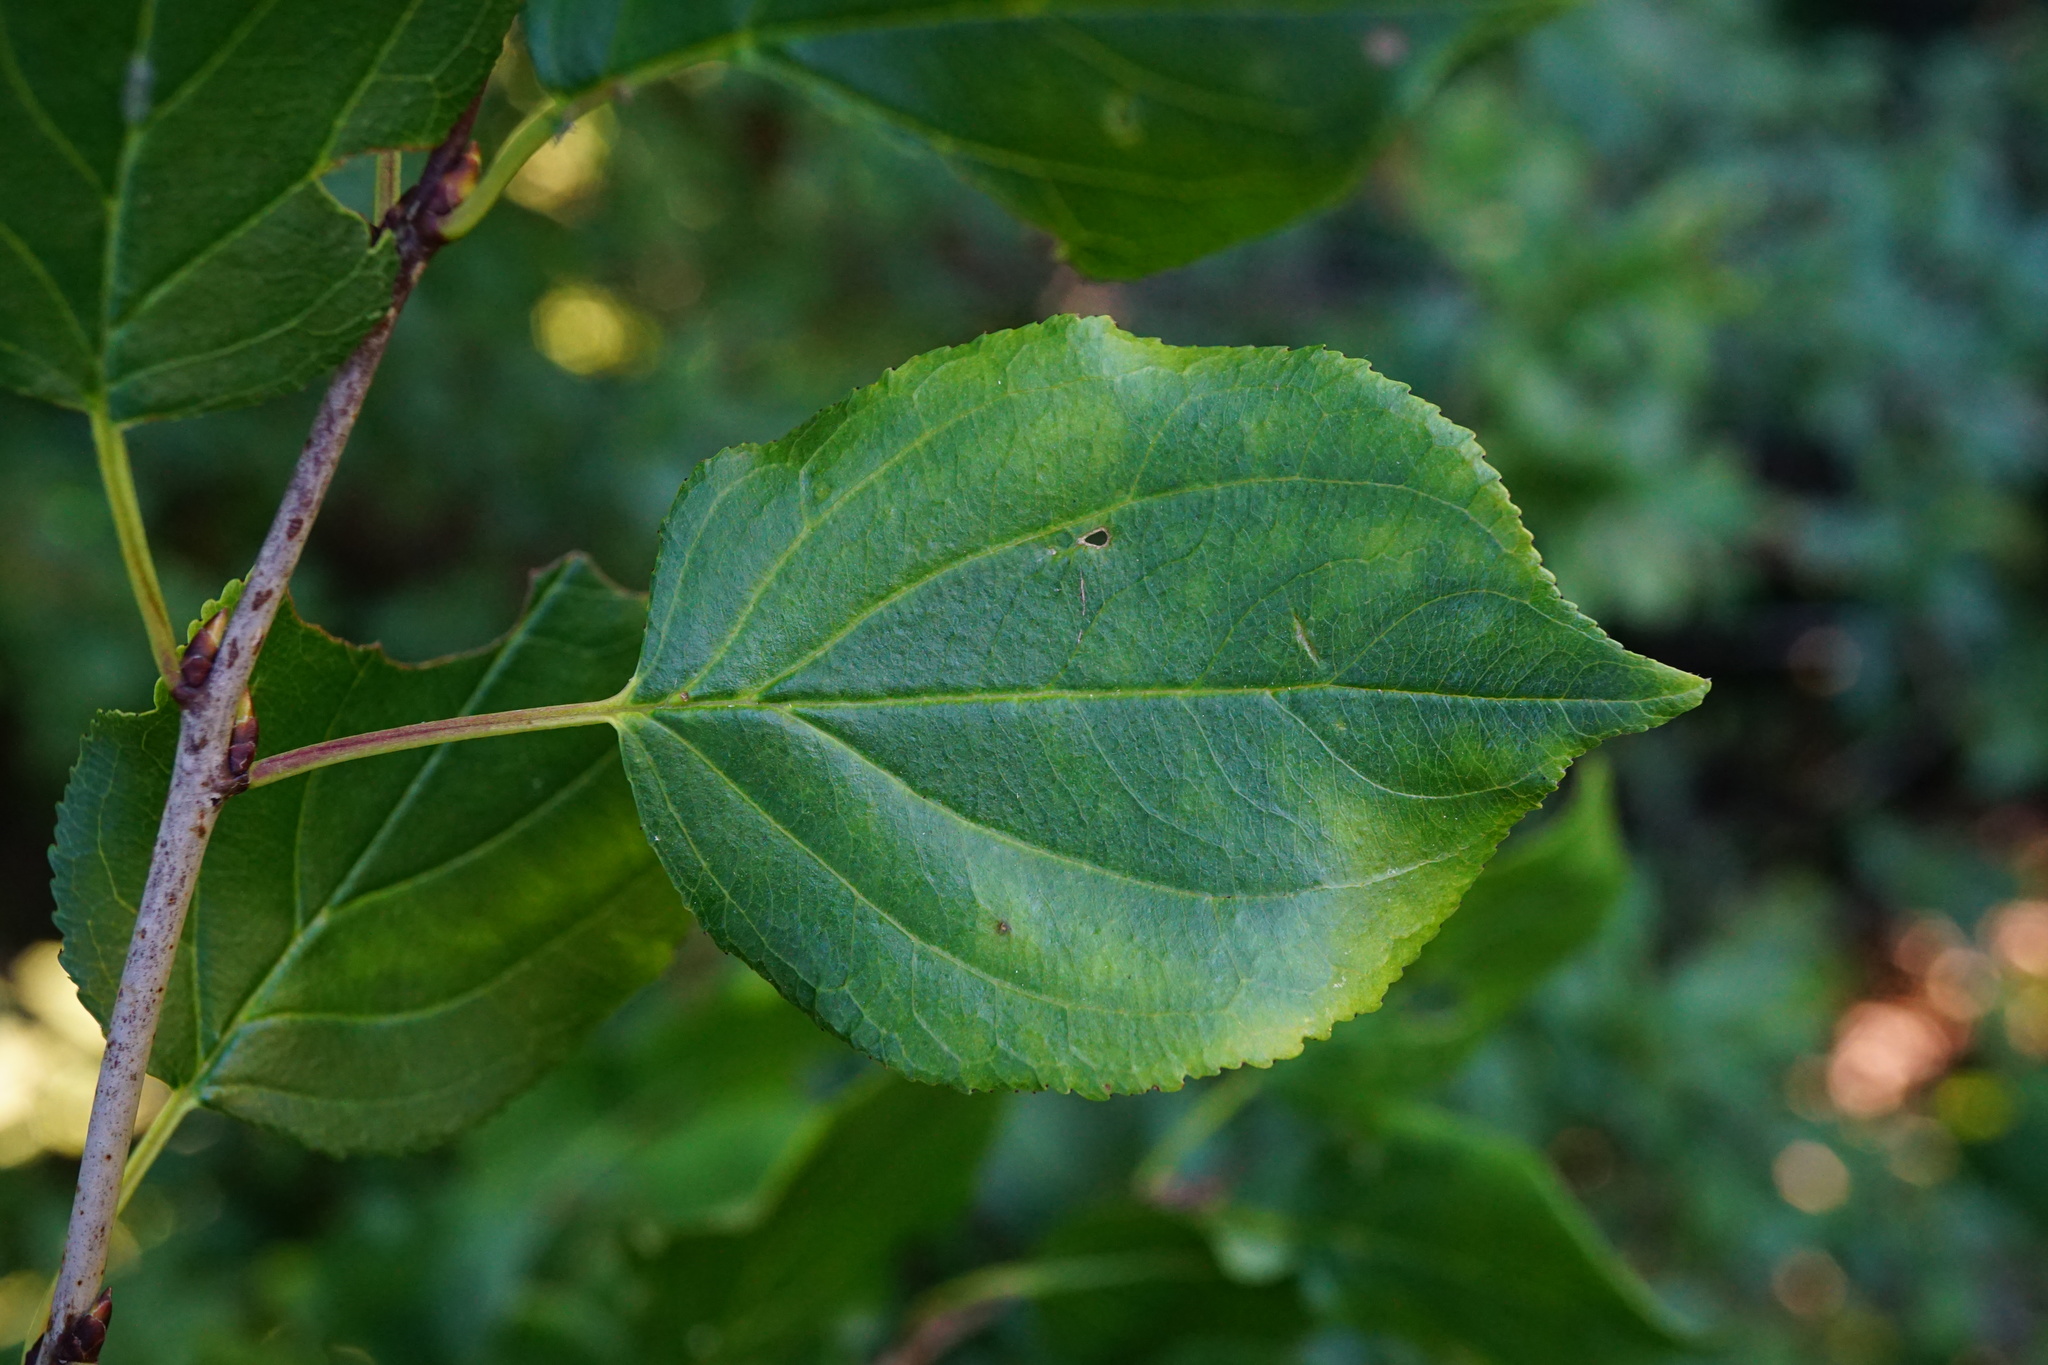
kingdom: Plantae
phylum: Tracheophyta
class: Magnoliopsida
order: Rosales
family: Rhamnaceae
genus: Rhamnus
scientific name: Rhamnus cathartica
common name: Common buckthorn
